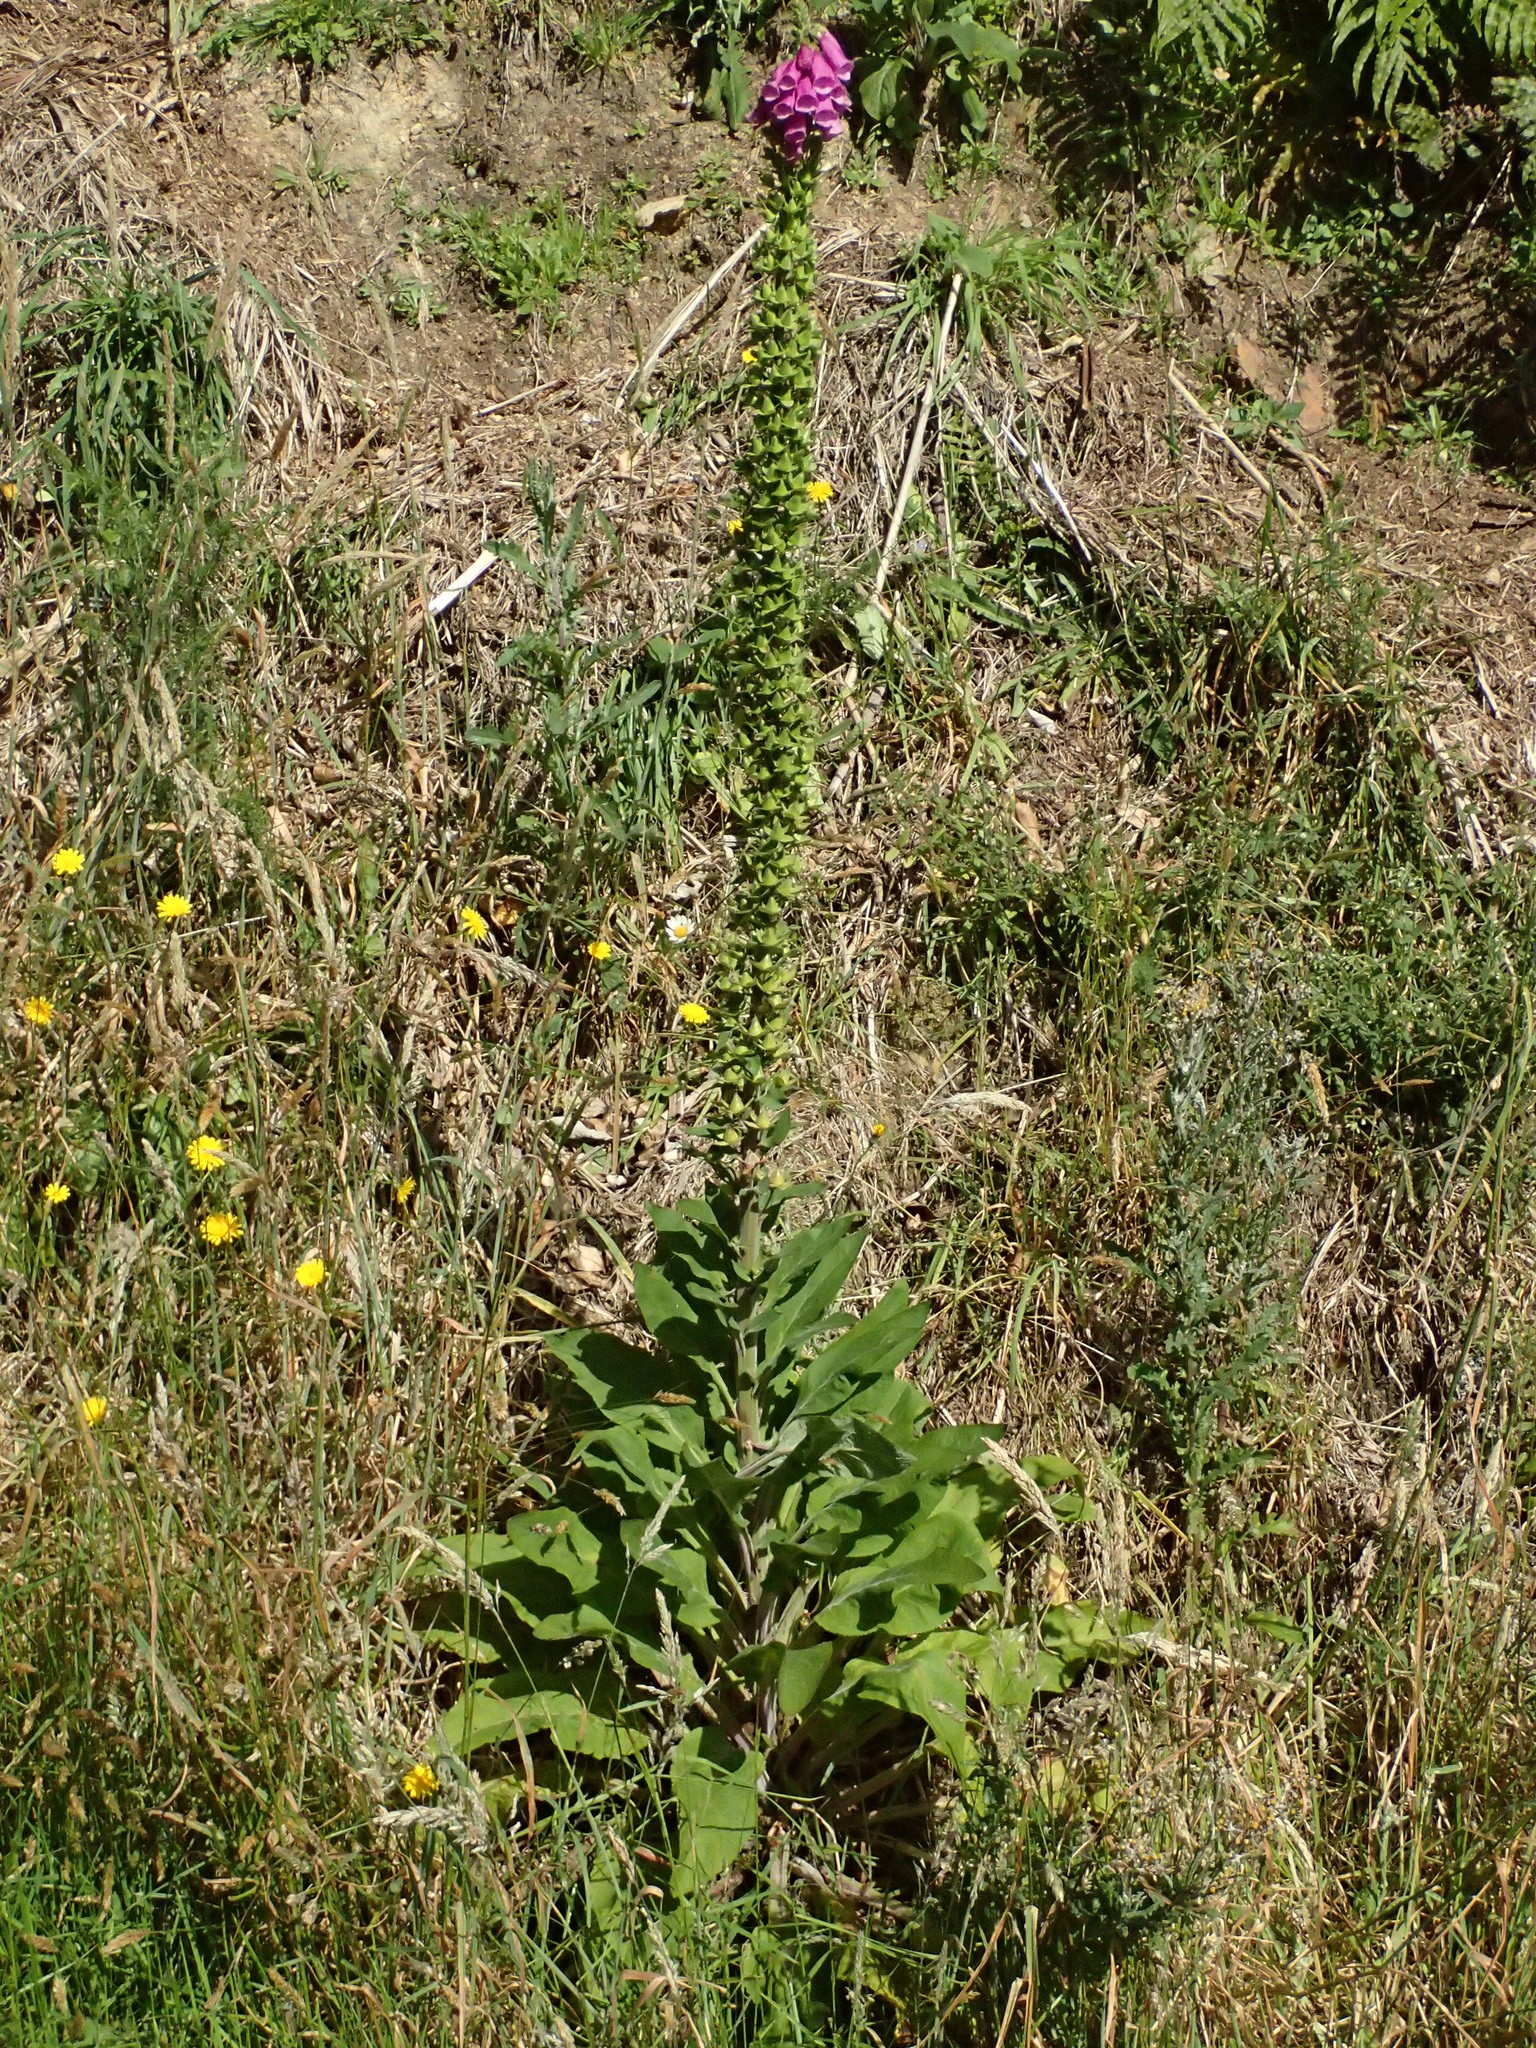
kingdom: Plantae
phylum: Tracheophyta
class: Magnoliopsida
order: Lamiales
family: Plantaginaceae
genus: Digitalis
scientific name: Digitalis purpurea
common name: Foxglove
